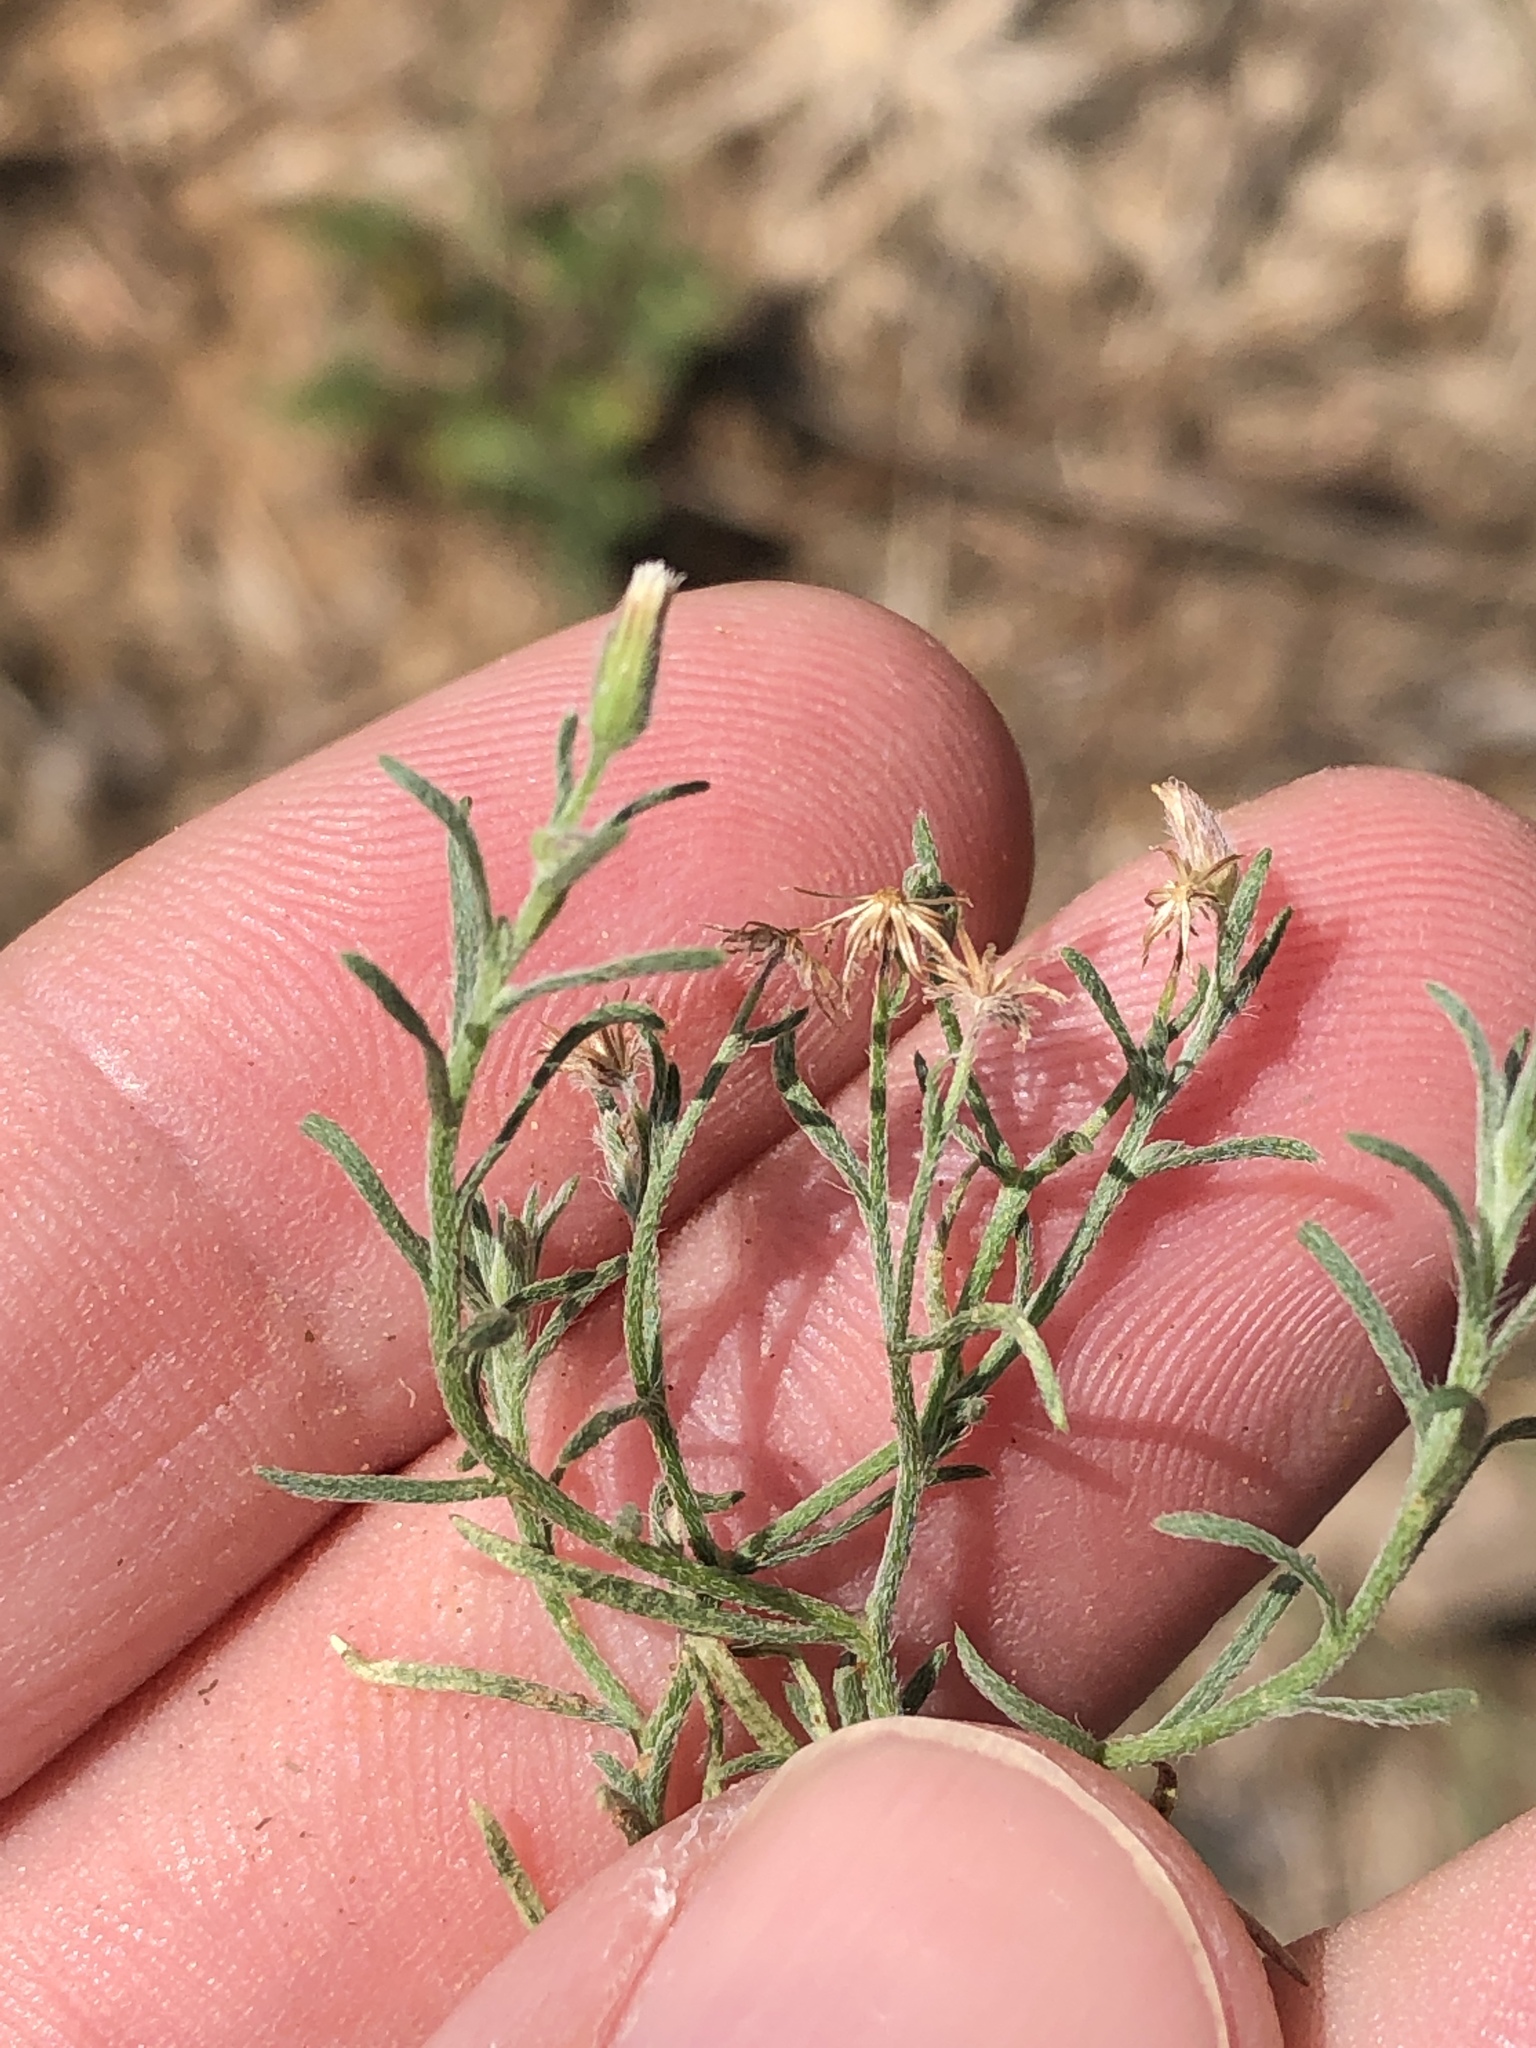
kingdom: Plantae
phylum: Tracheophyta
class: Magnoliopsida
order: Asterales
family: Asteraceae
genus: Erigeron
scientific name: Erigeron divaricatus
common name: Dwarf conyza
